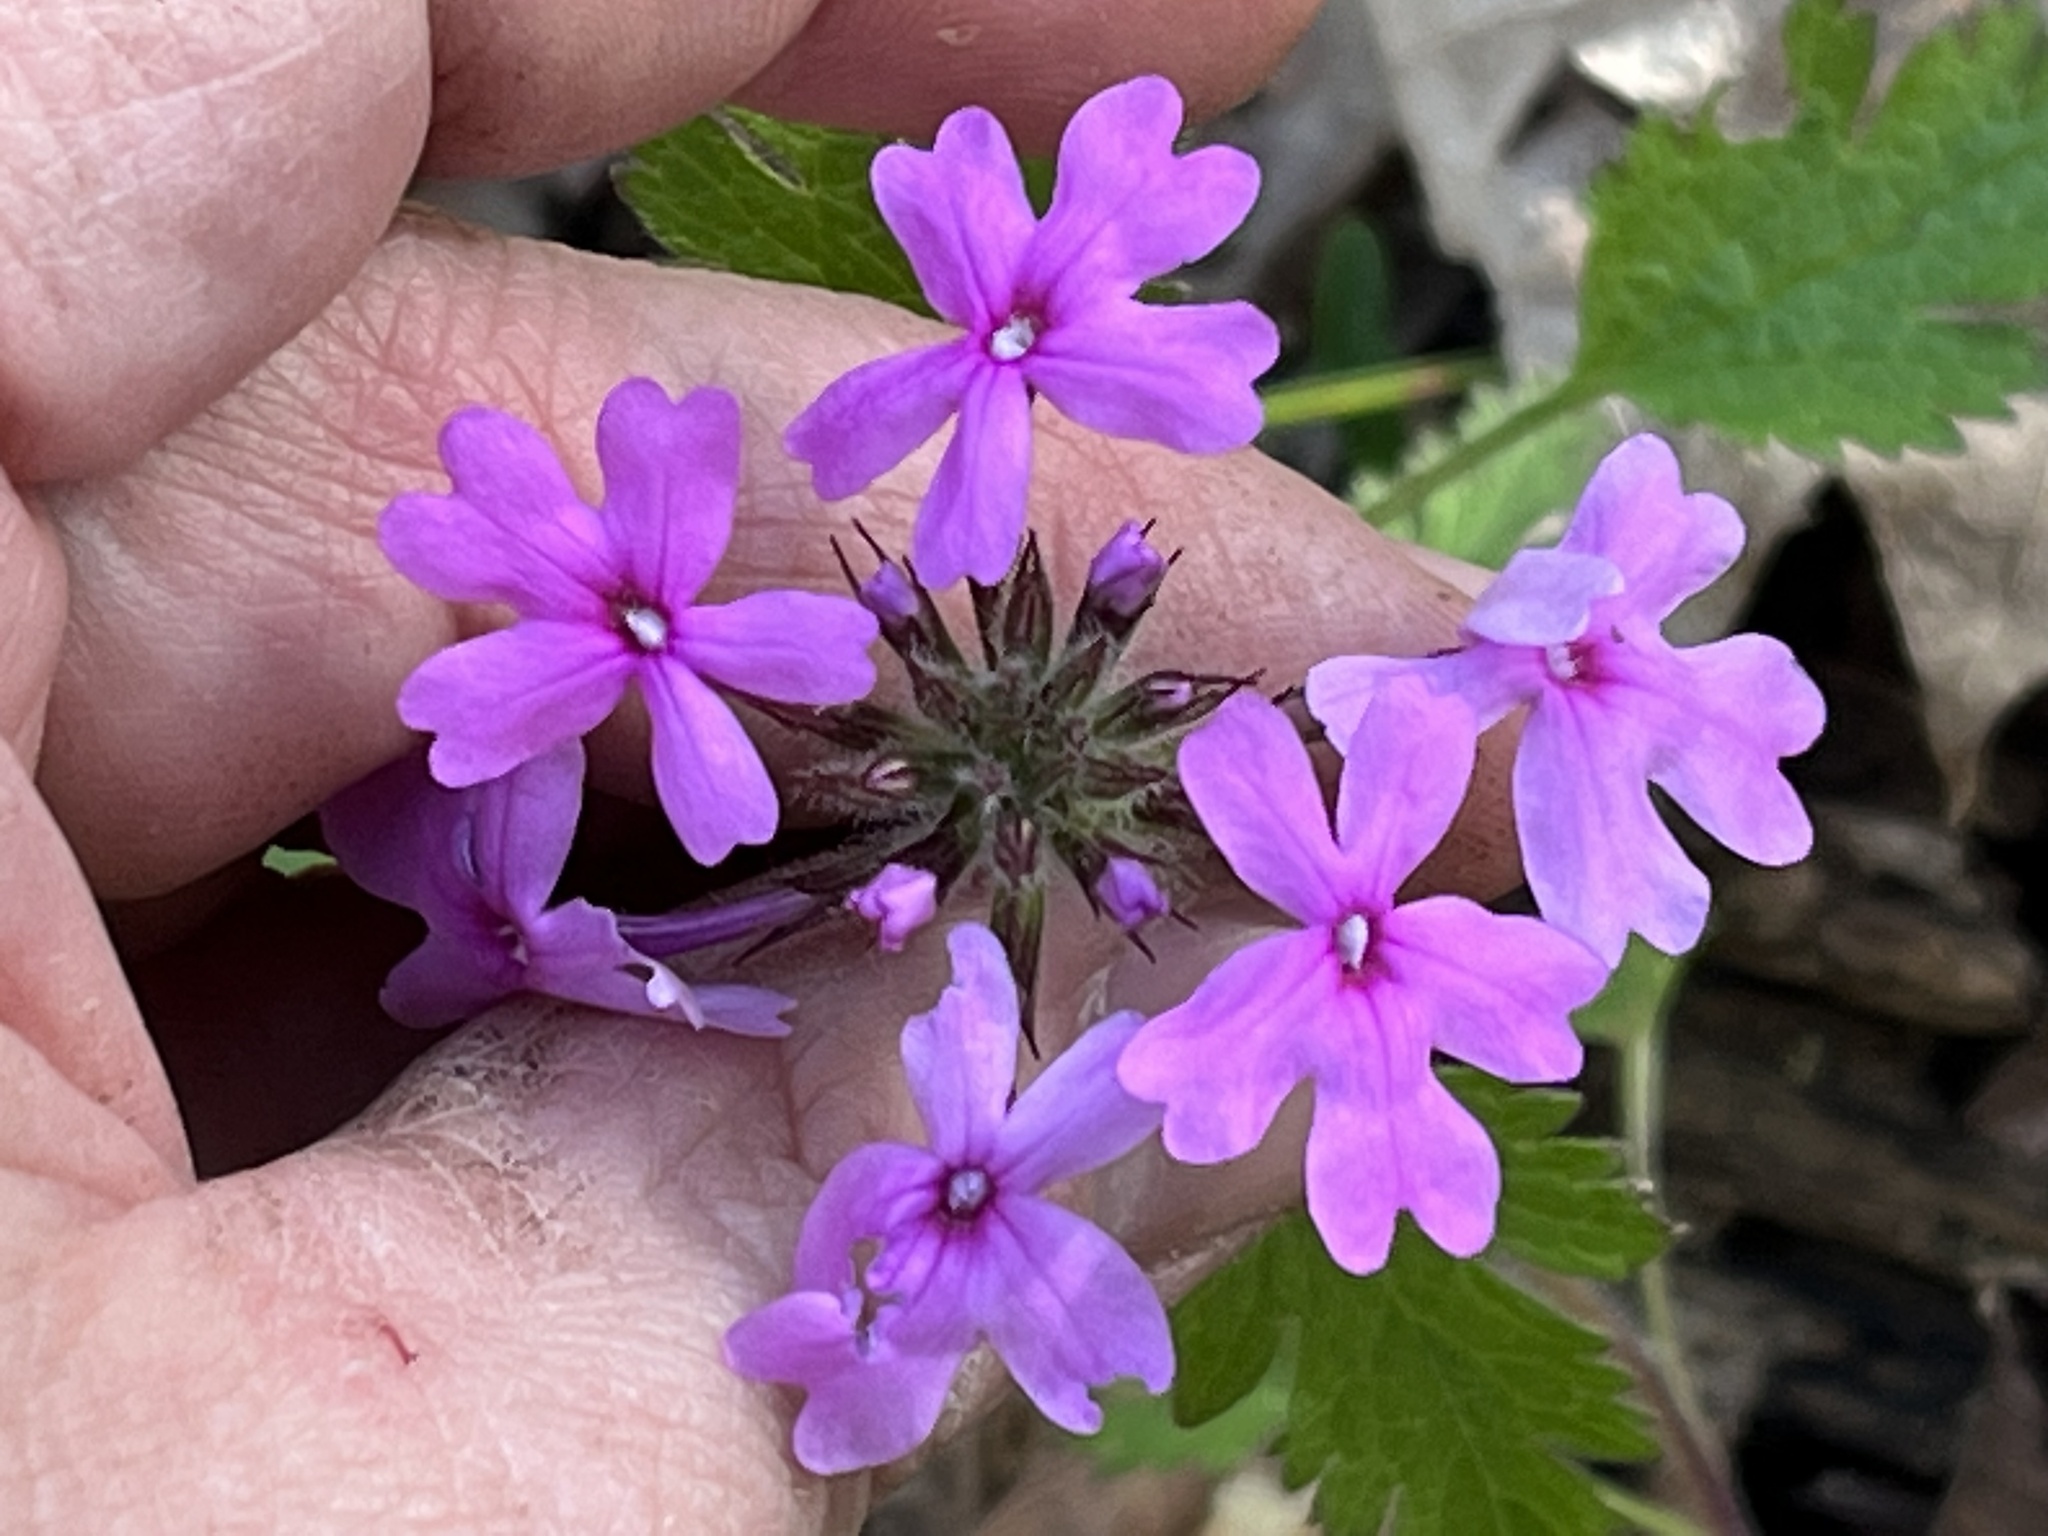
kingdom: Plantae
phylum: Tracheophyta
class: Magnoliopsida
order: Lamiales
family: Verbenaceae
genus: Verbena
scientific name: Verbena canadensis
